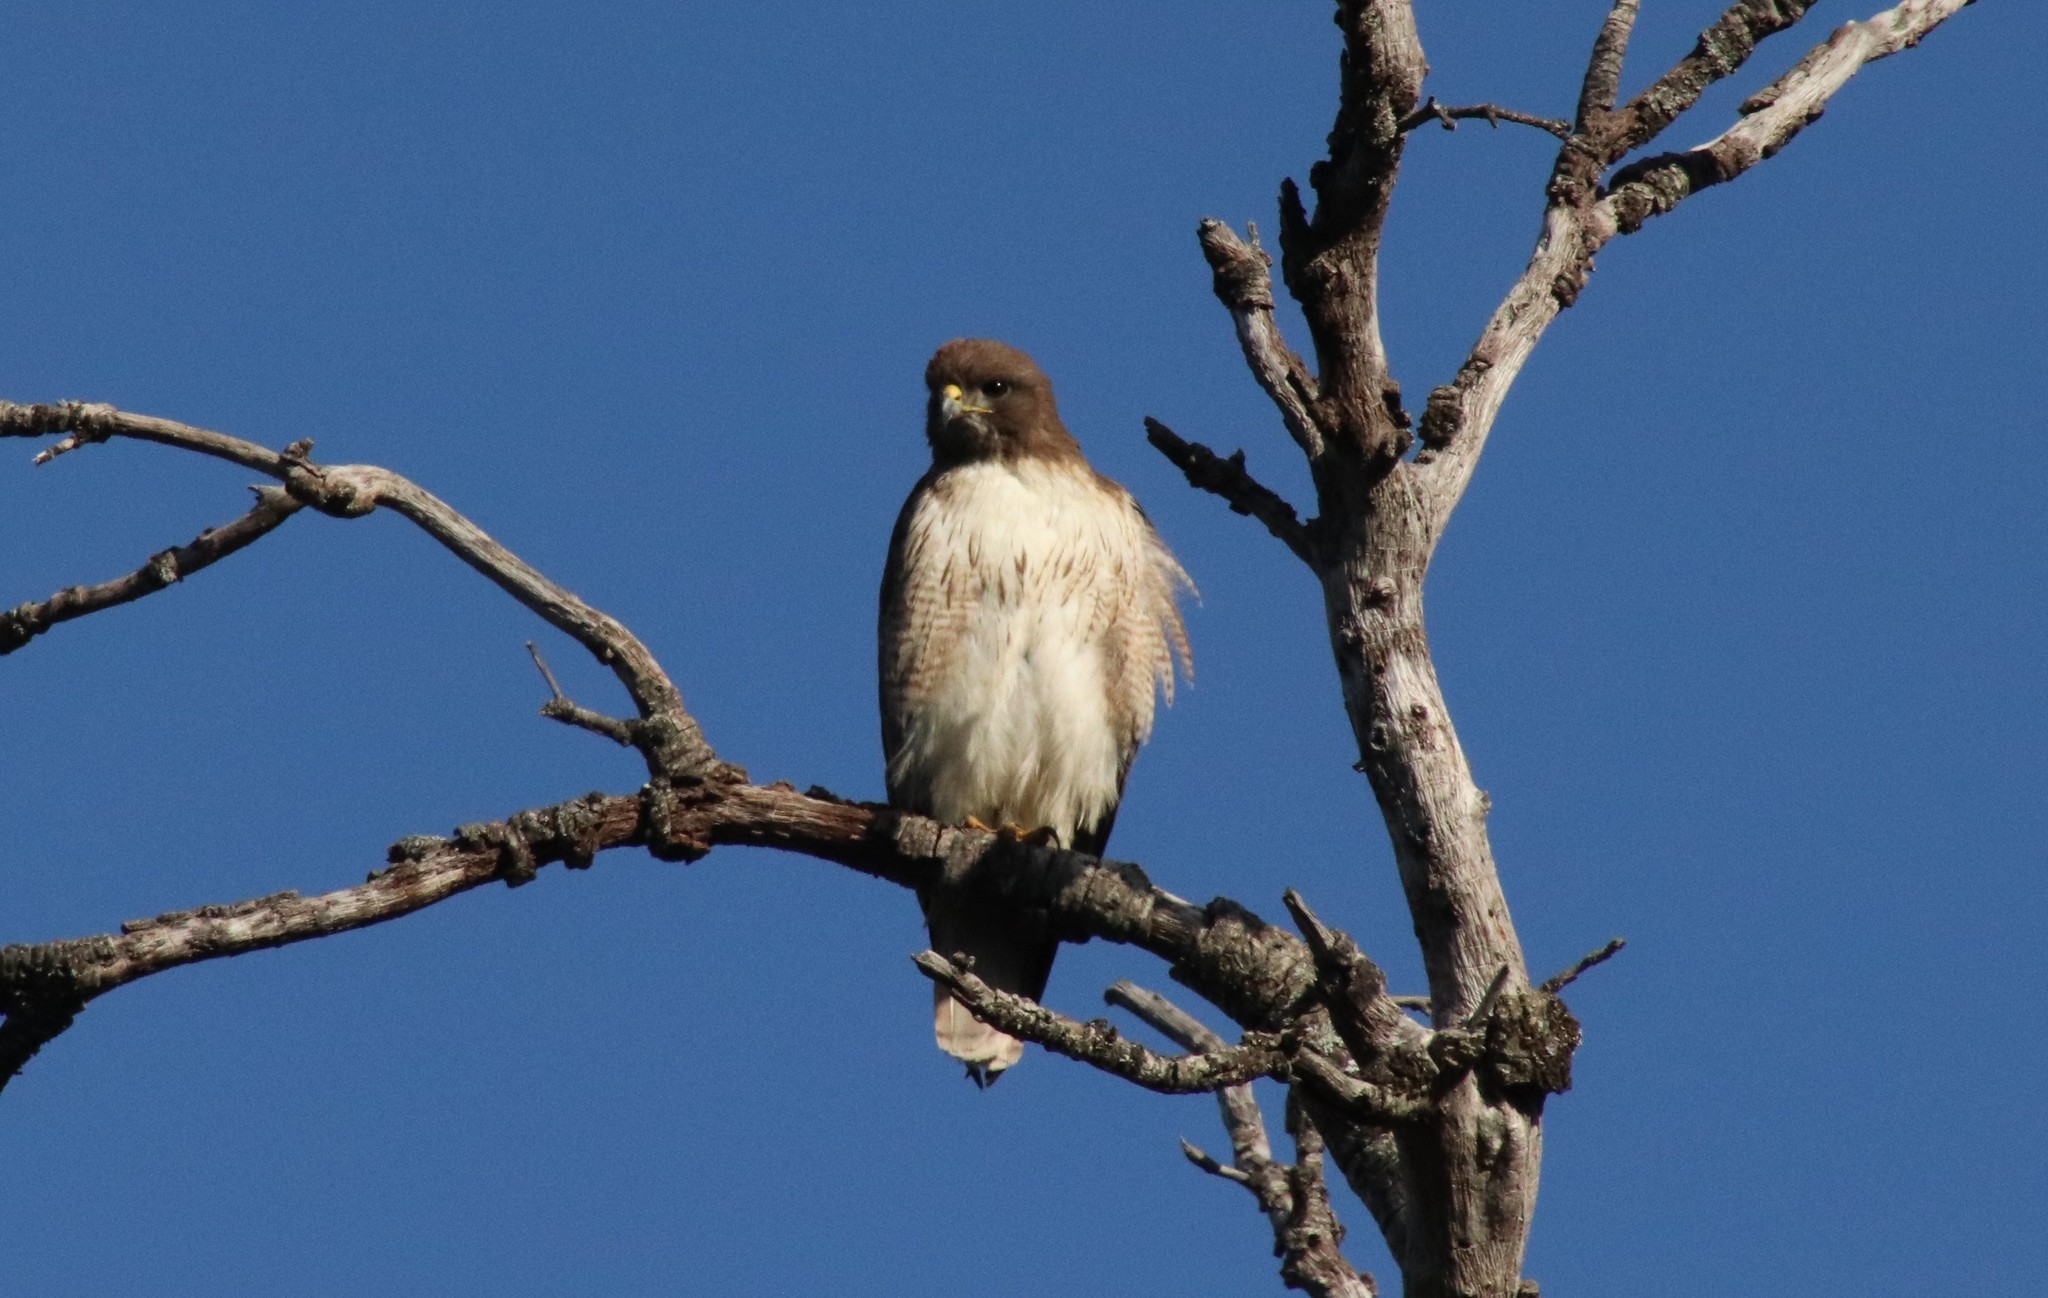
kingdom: Animalia
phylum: Chordata
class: Aves
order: Accipitriformes
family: Accipitridae
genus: Buteo
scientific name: Buteo jamaicensis
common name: Red-tailed hawk
